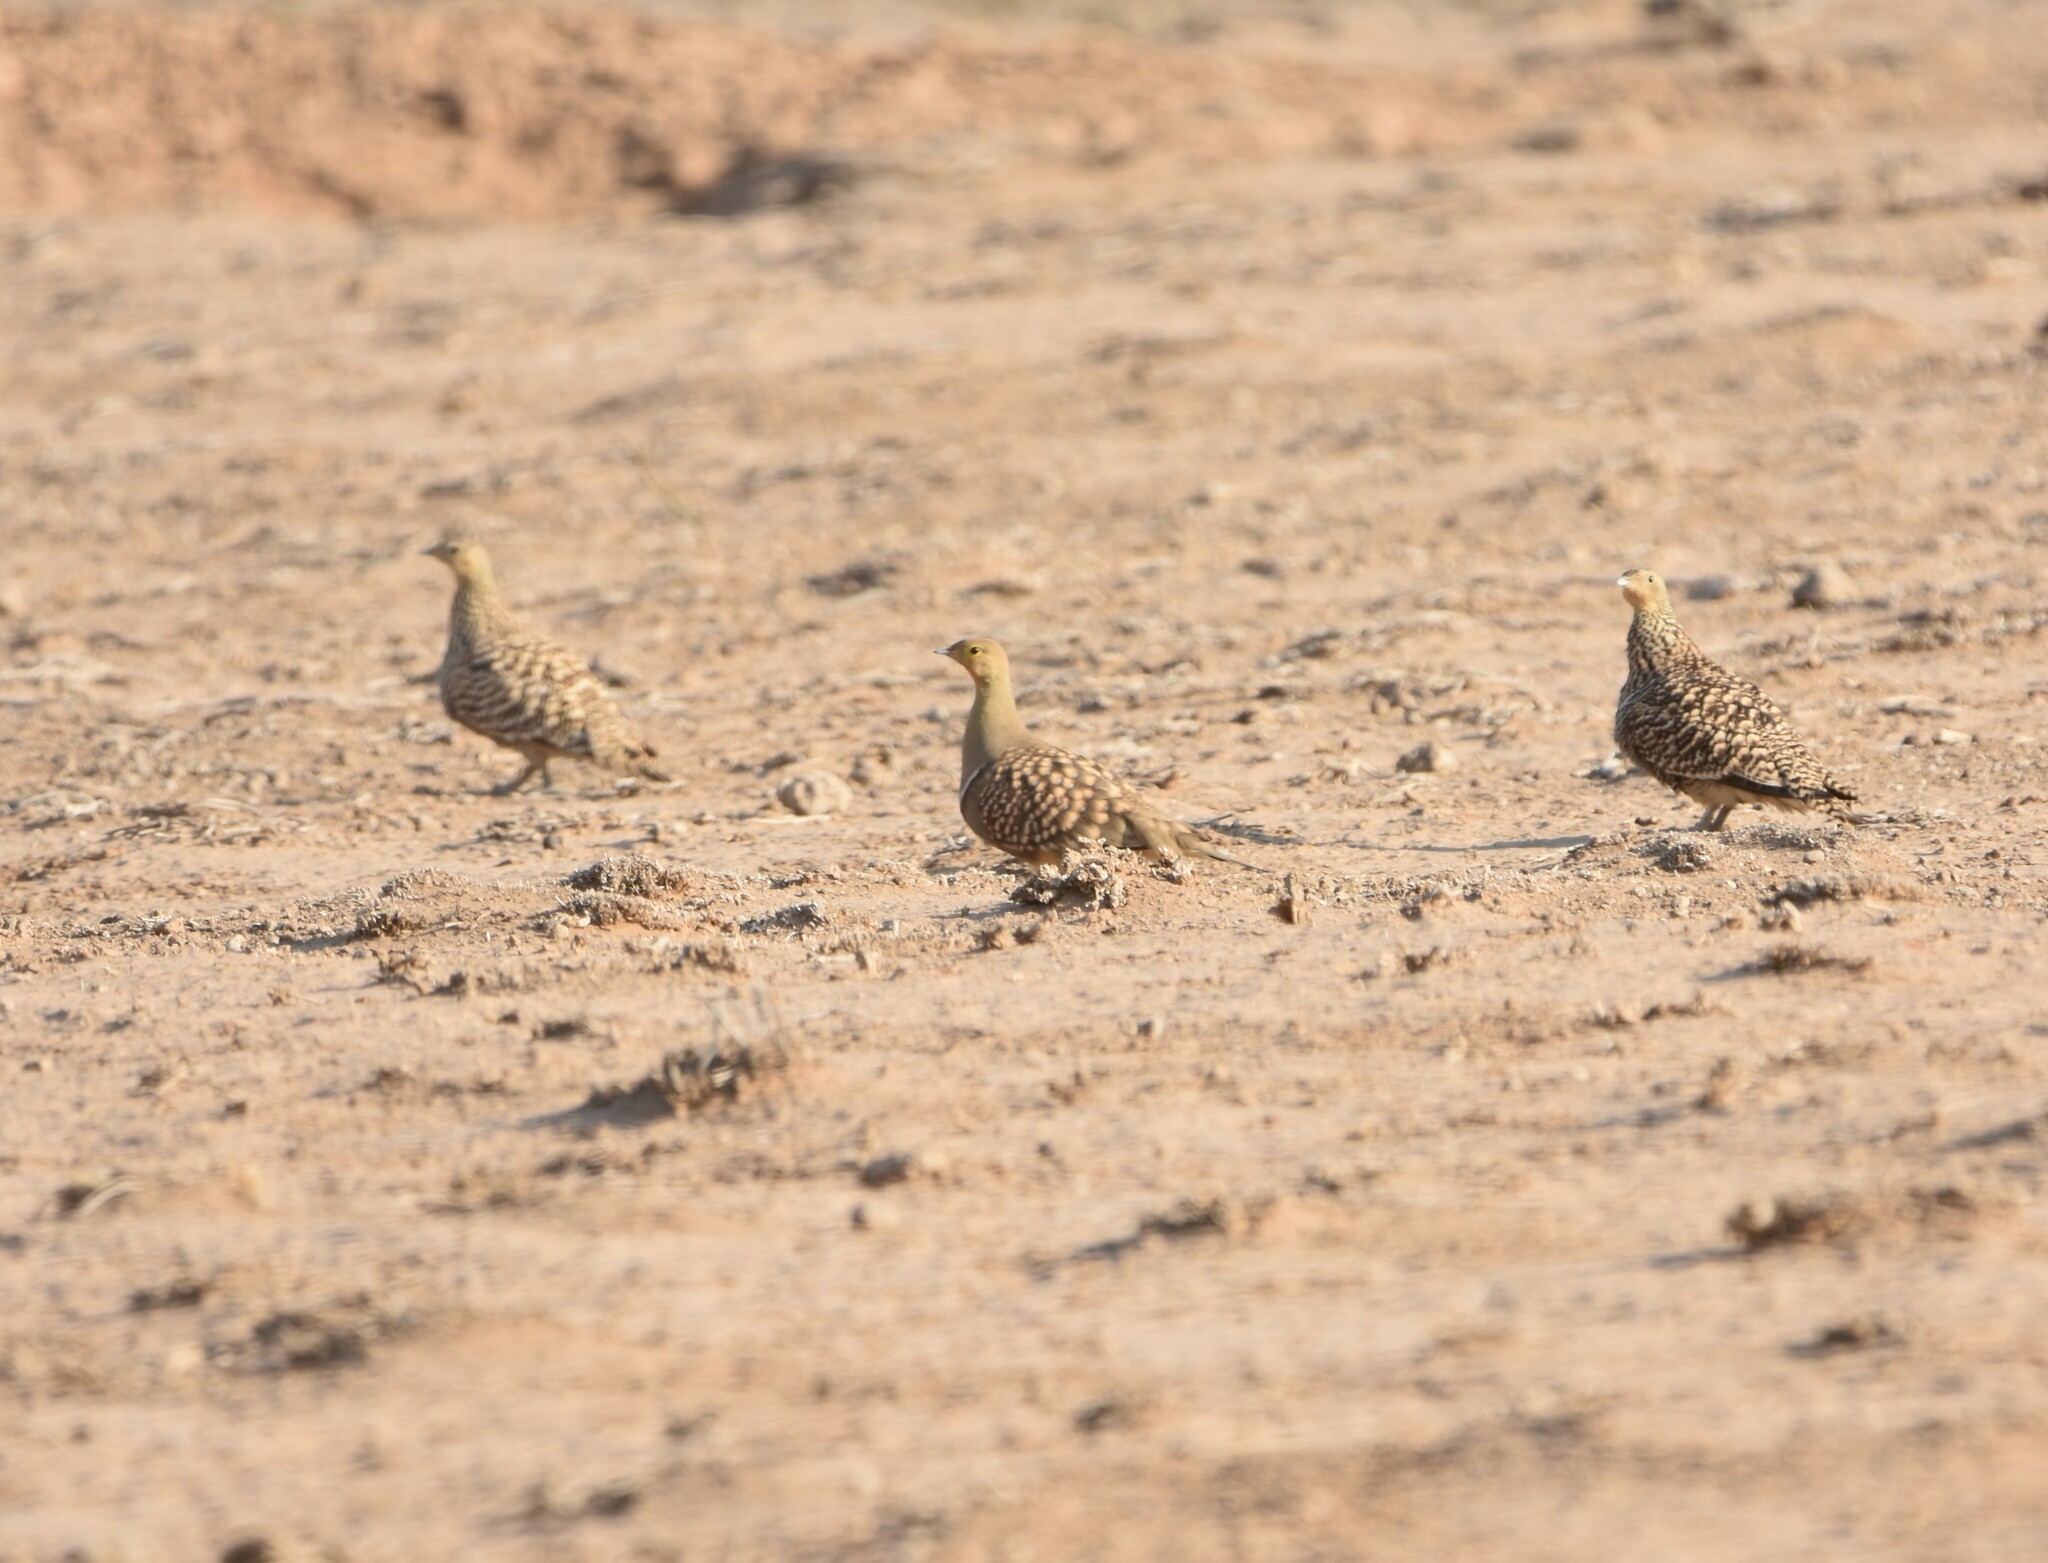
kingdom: Animalia
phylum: Chordata
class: Aves
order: Pteroclidiformes
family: Pteroclididae
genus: Pterocles
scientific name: Pterocles namaqua
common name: Namaqua sandgrouse
